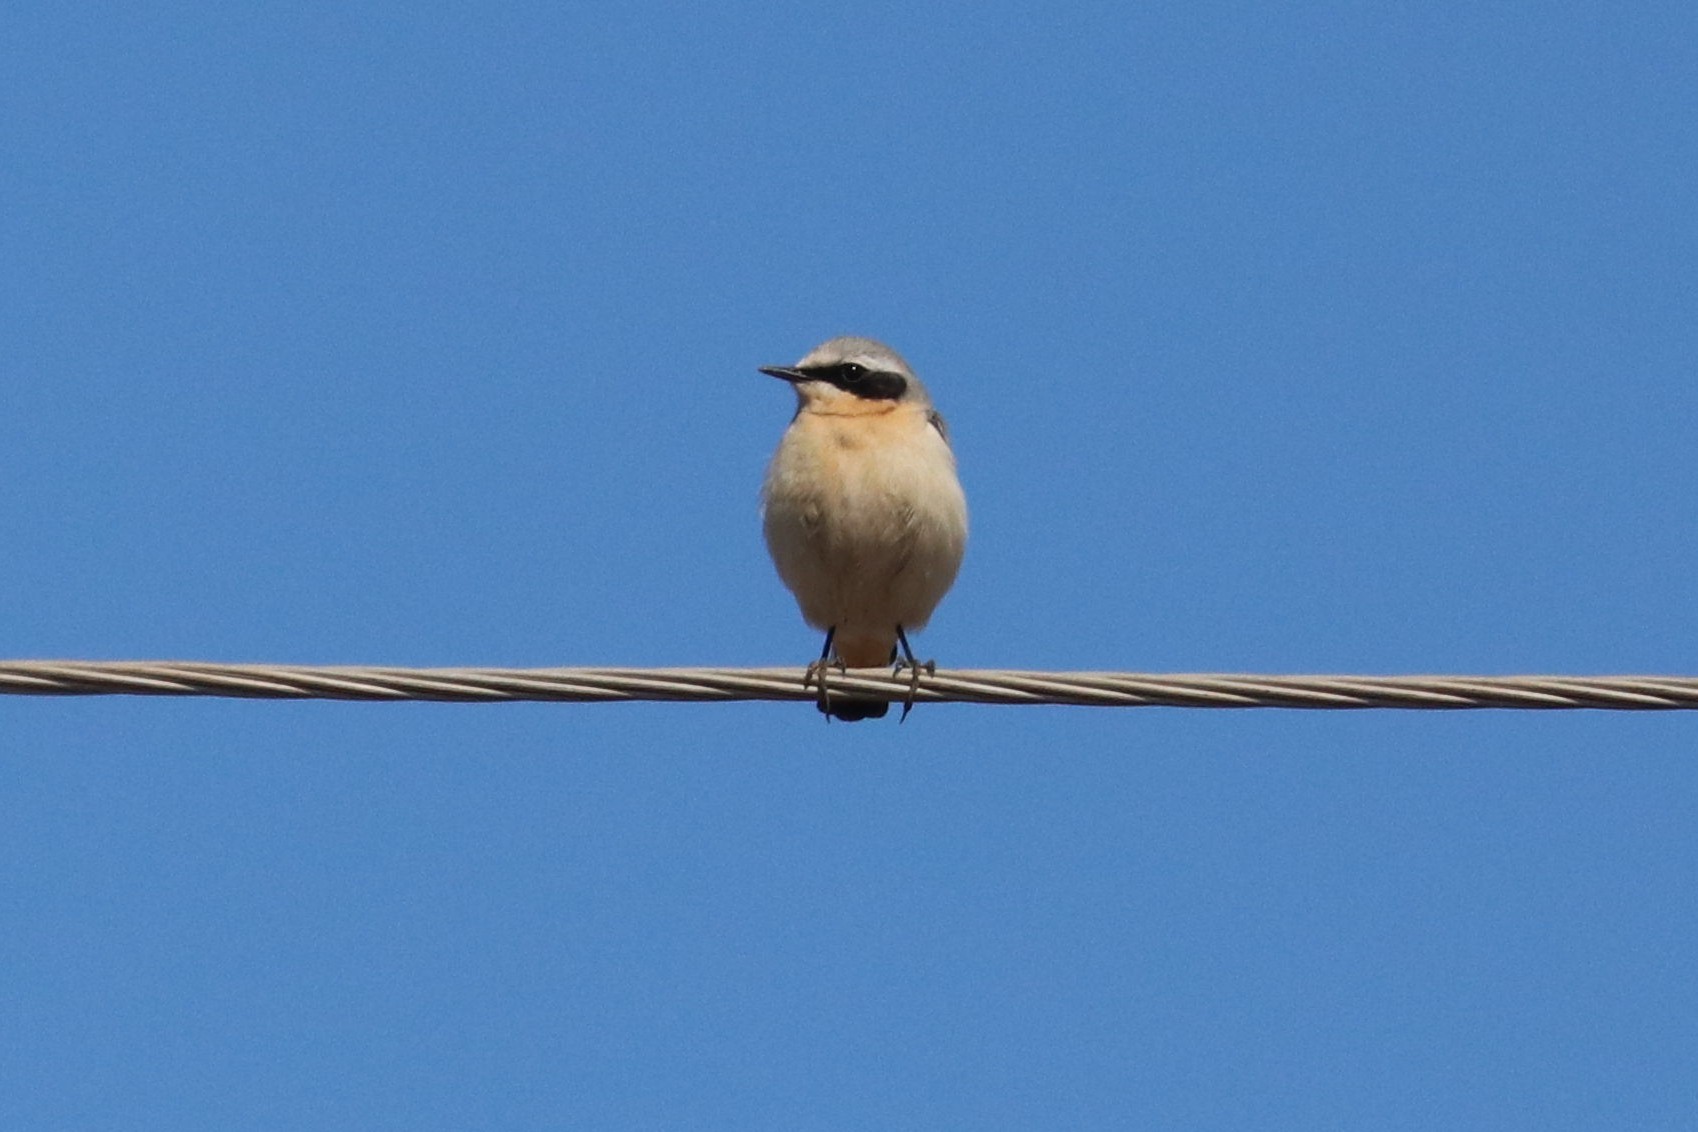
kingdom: Animalia
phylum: Chordata
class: Aves
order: Passeriformes
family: Muscicapidae
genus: Oenanthe
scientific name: Oenanthe oenanthe
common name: Northern wheatear
